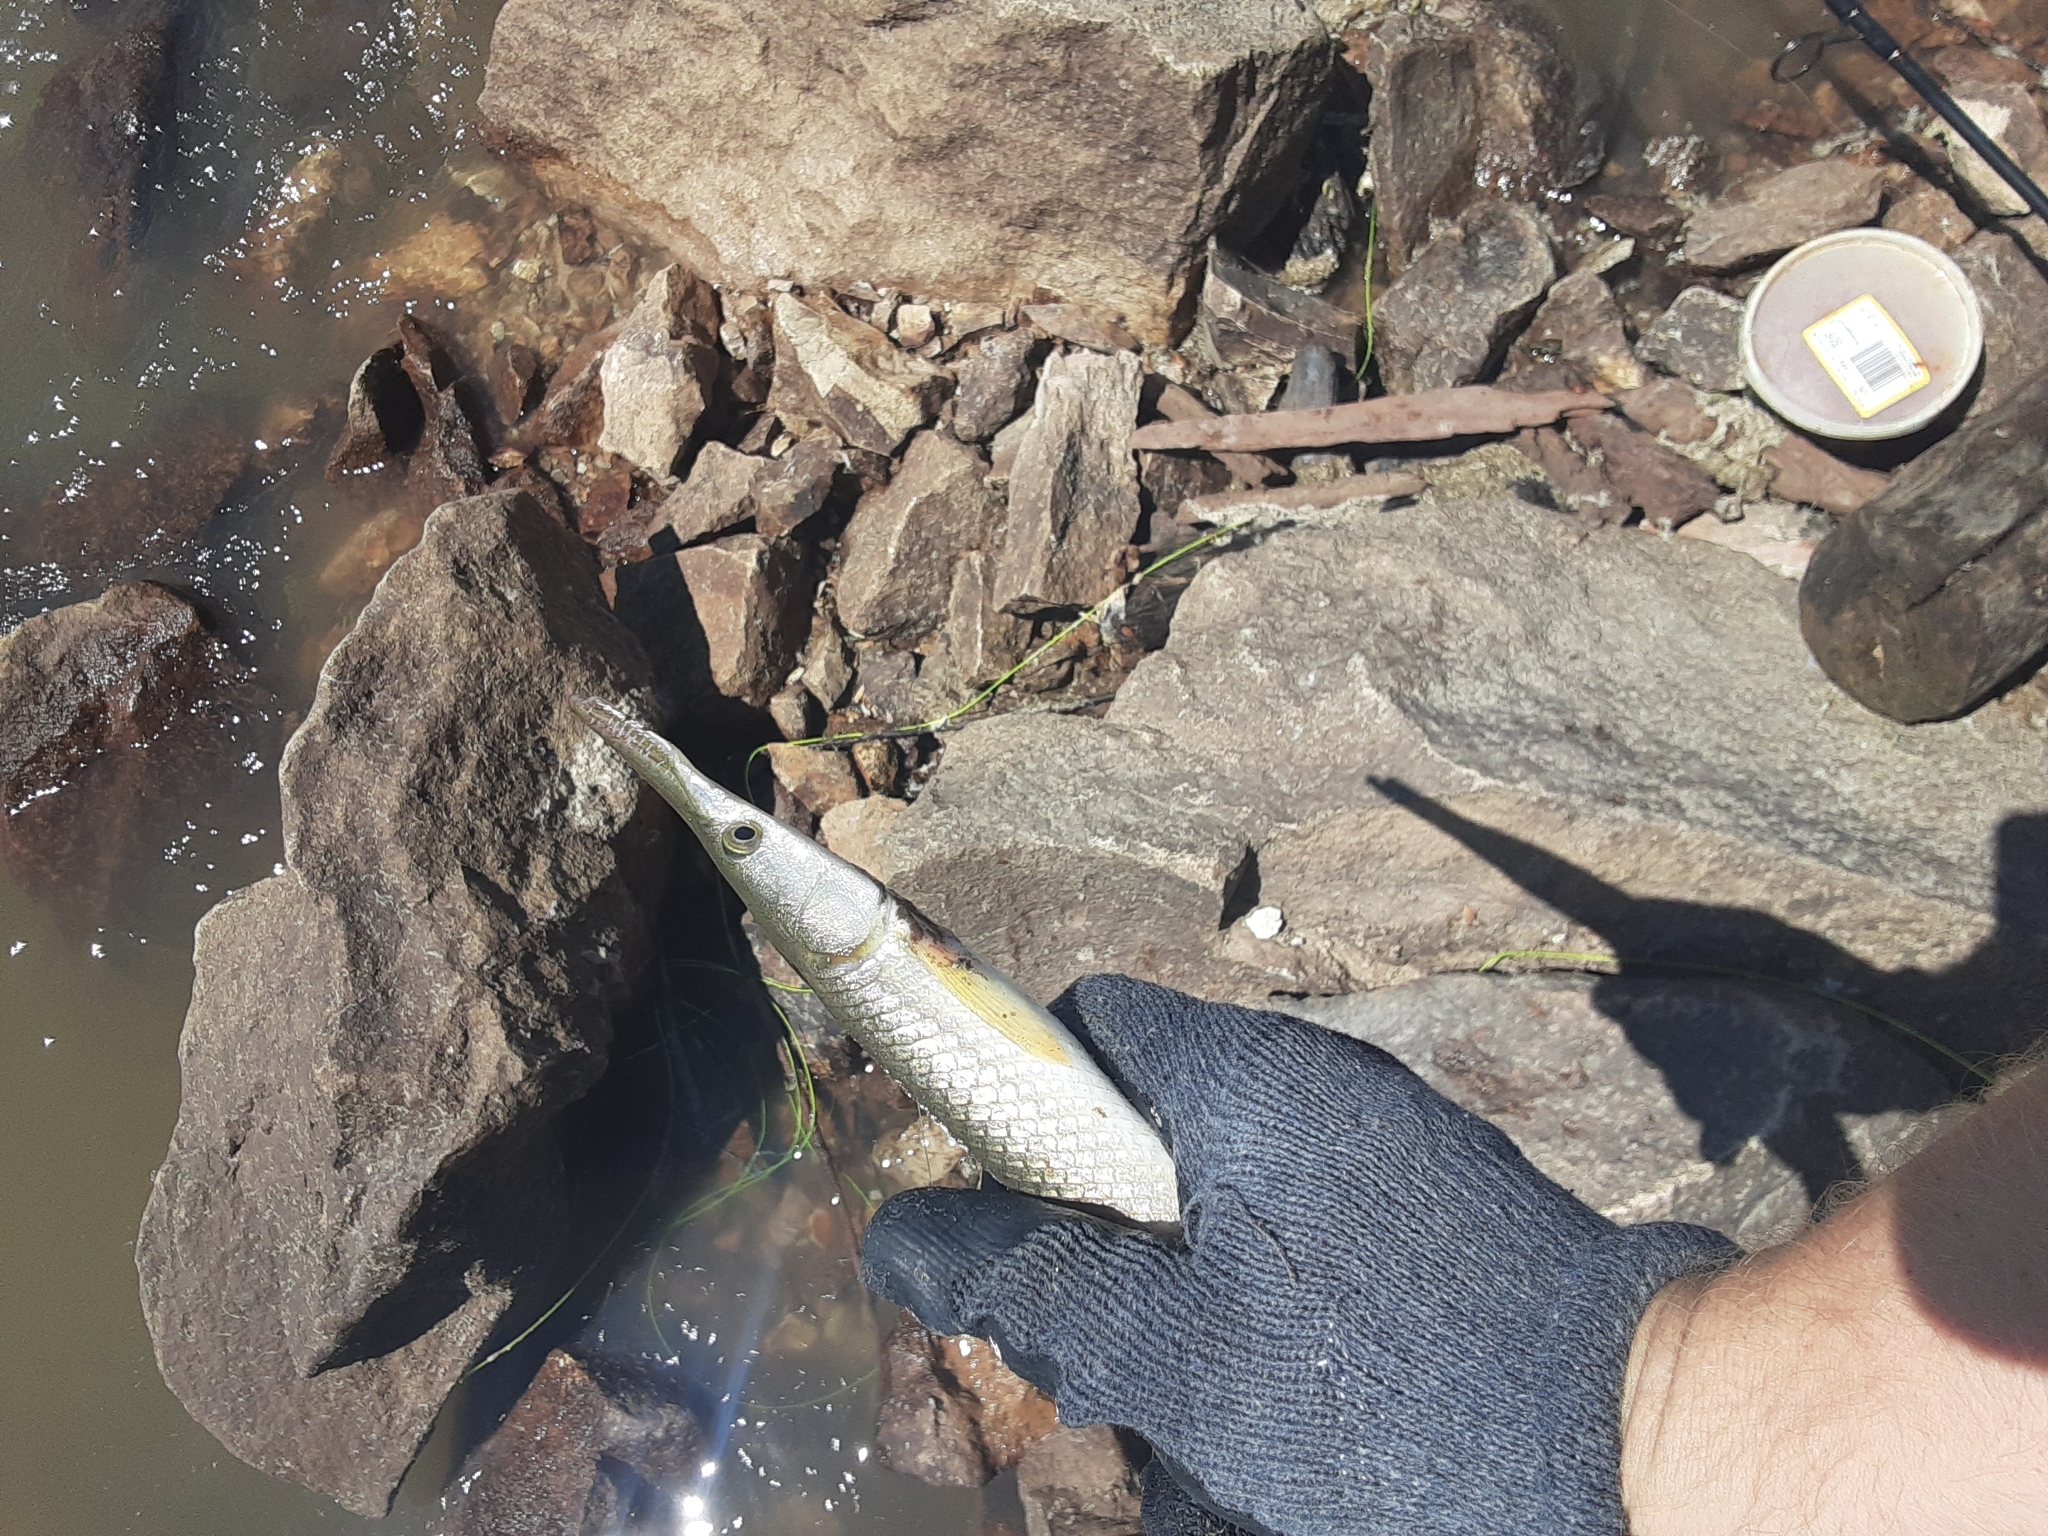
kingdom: Animalia
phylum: Chordata
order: Lepisosteiformes
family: Lepisosteidae
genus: Lepisosteus
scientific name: Lepisosteus platostomus
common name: Shortnose gar
